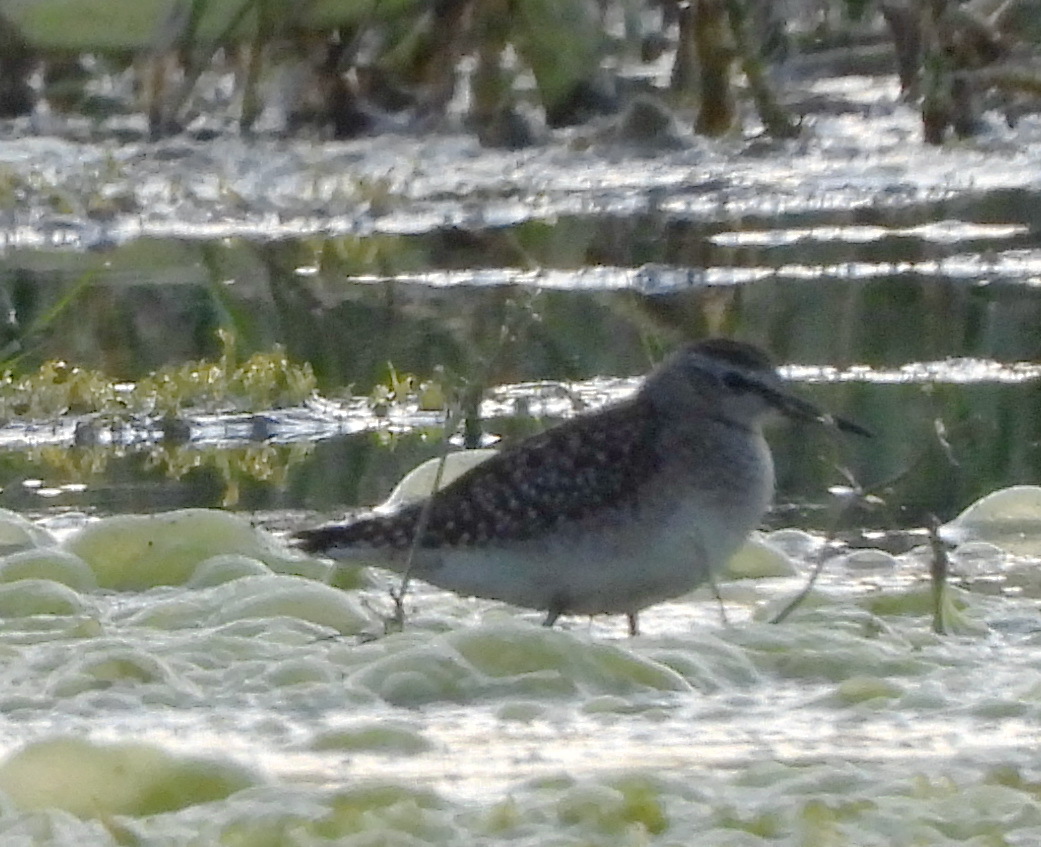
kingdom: Animalia
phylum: Chordata
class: Aves
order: Charadriiformes
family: Scolopacidae
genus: Tringa
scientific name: Tringa glareola
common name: Wood sandpiper
